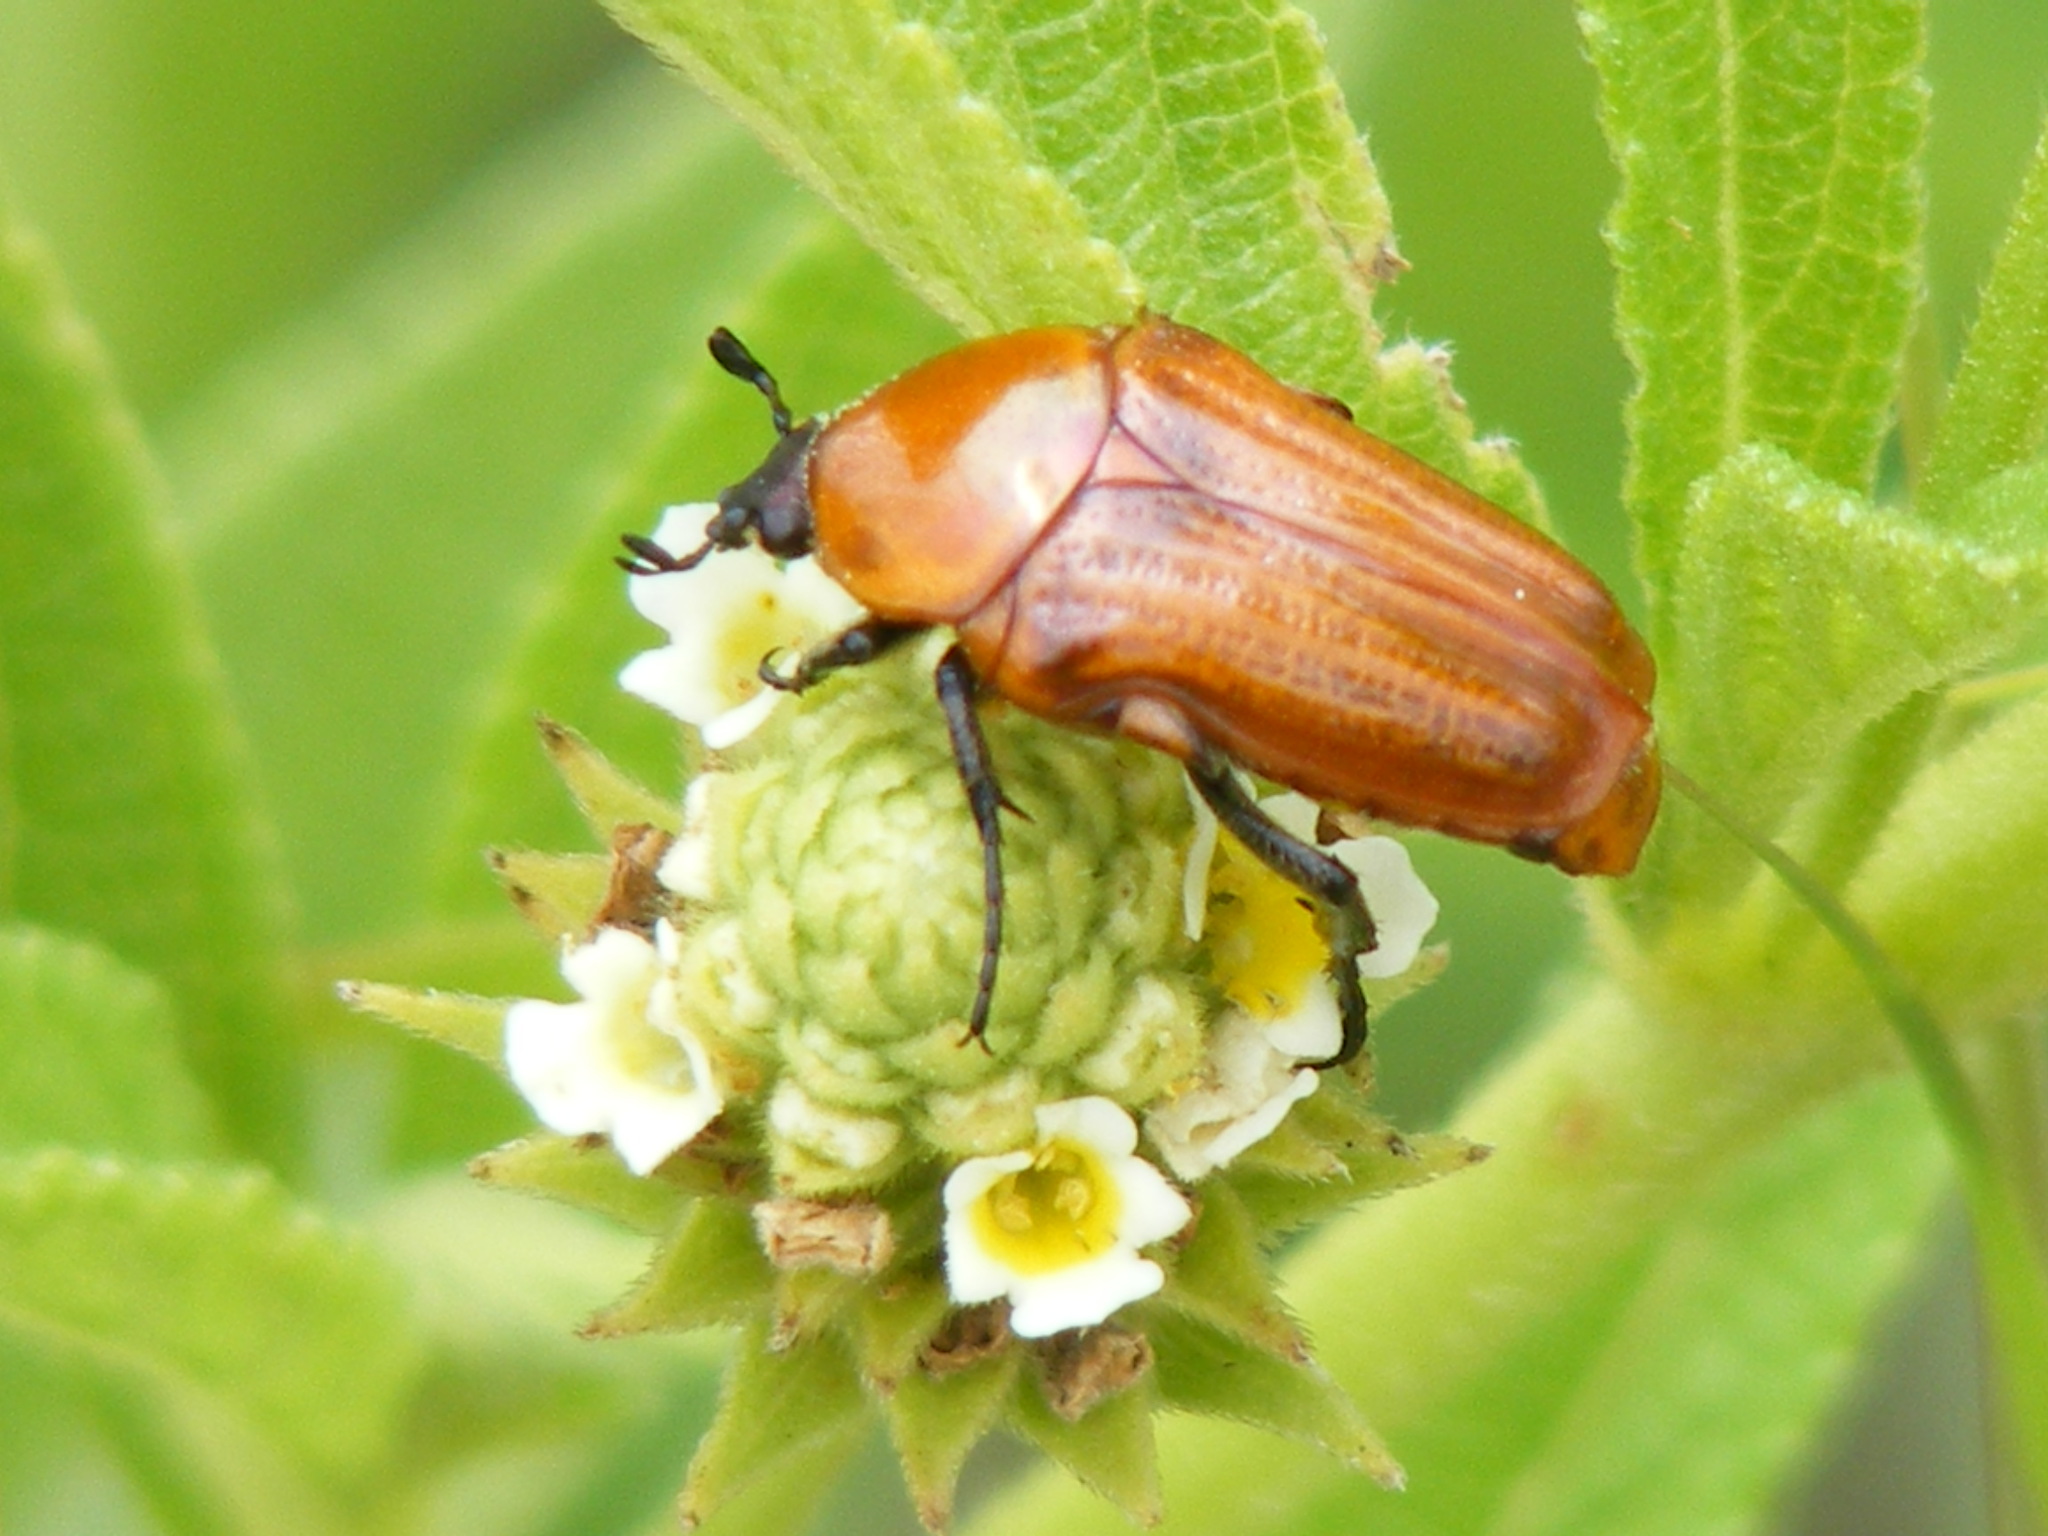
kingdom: Animalia
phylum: Arthropoda
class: Insecta
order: Coleoptera
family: Scarabaeidae
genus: Leucocelis
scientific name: Leucocelis rubra
